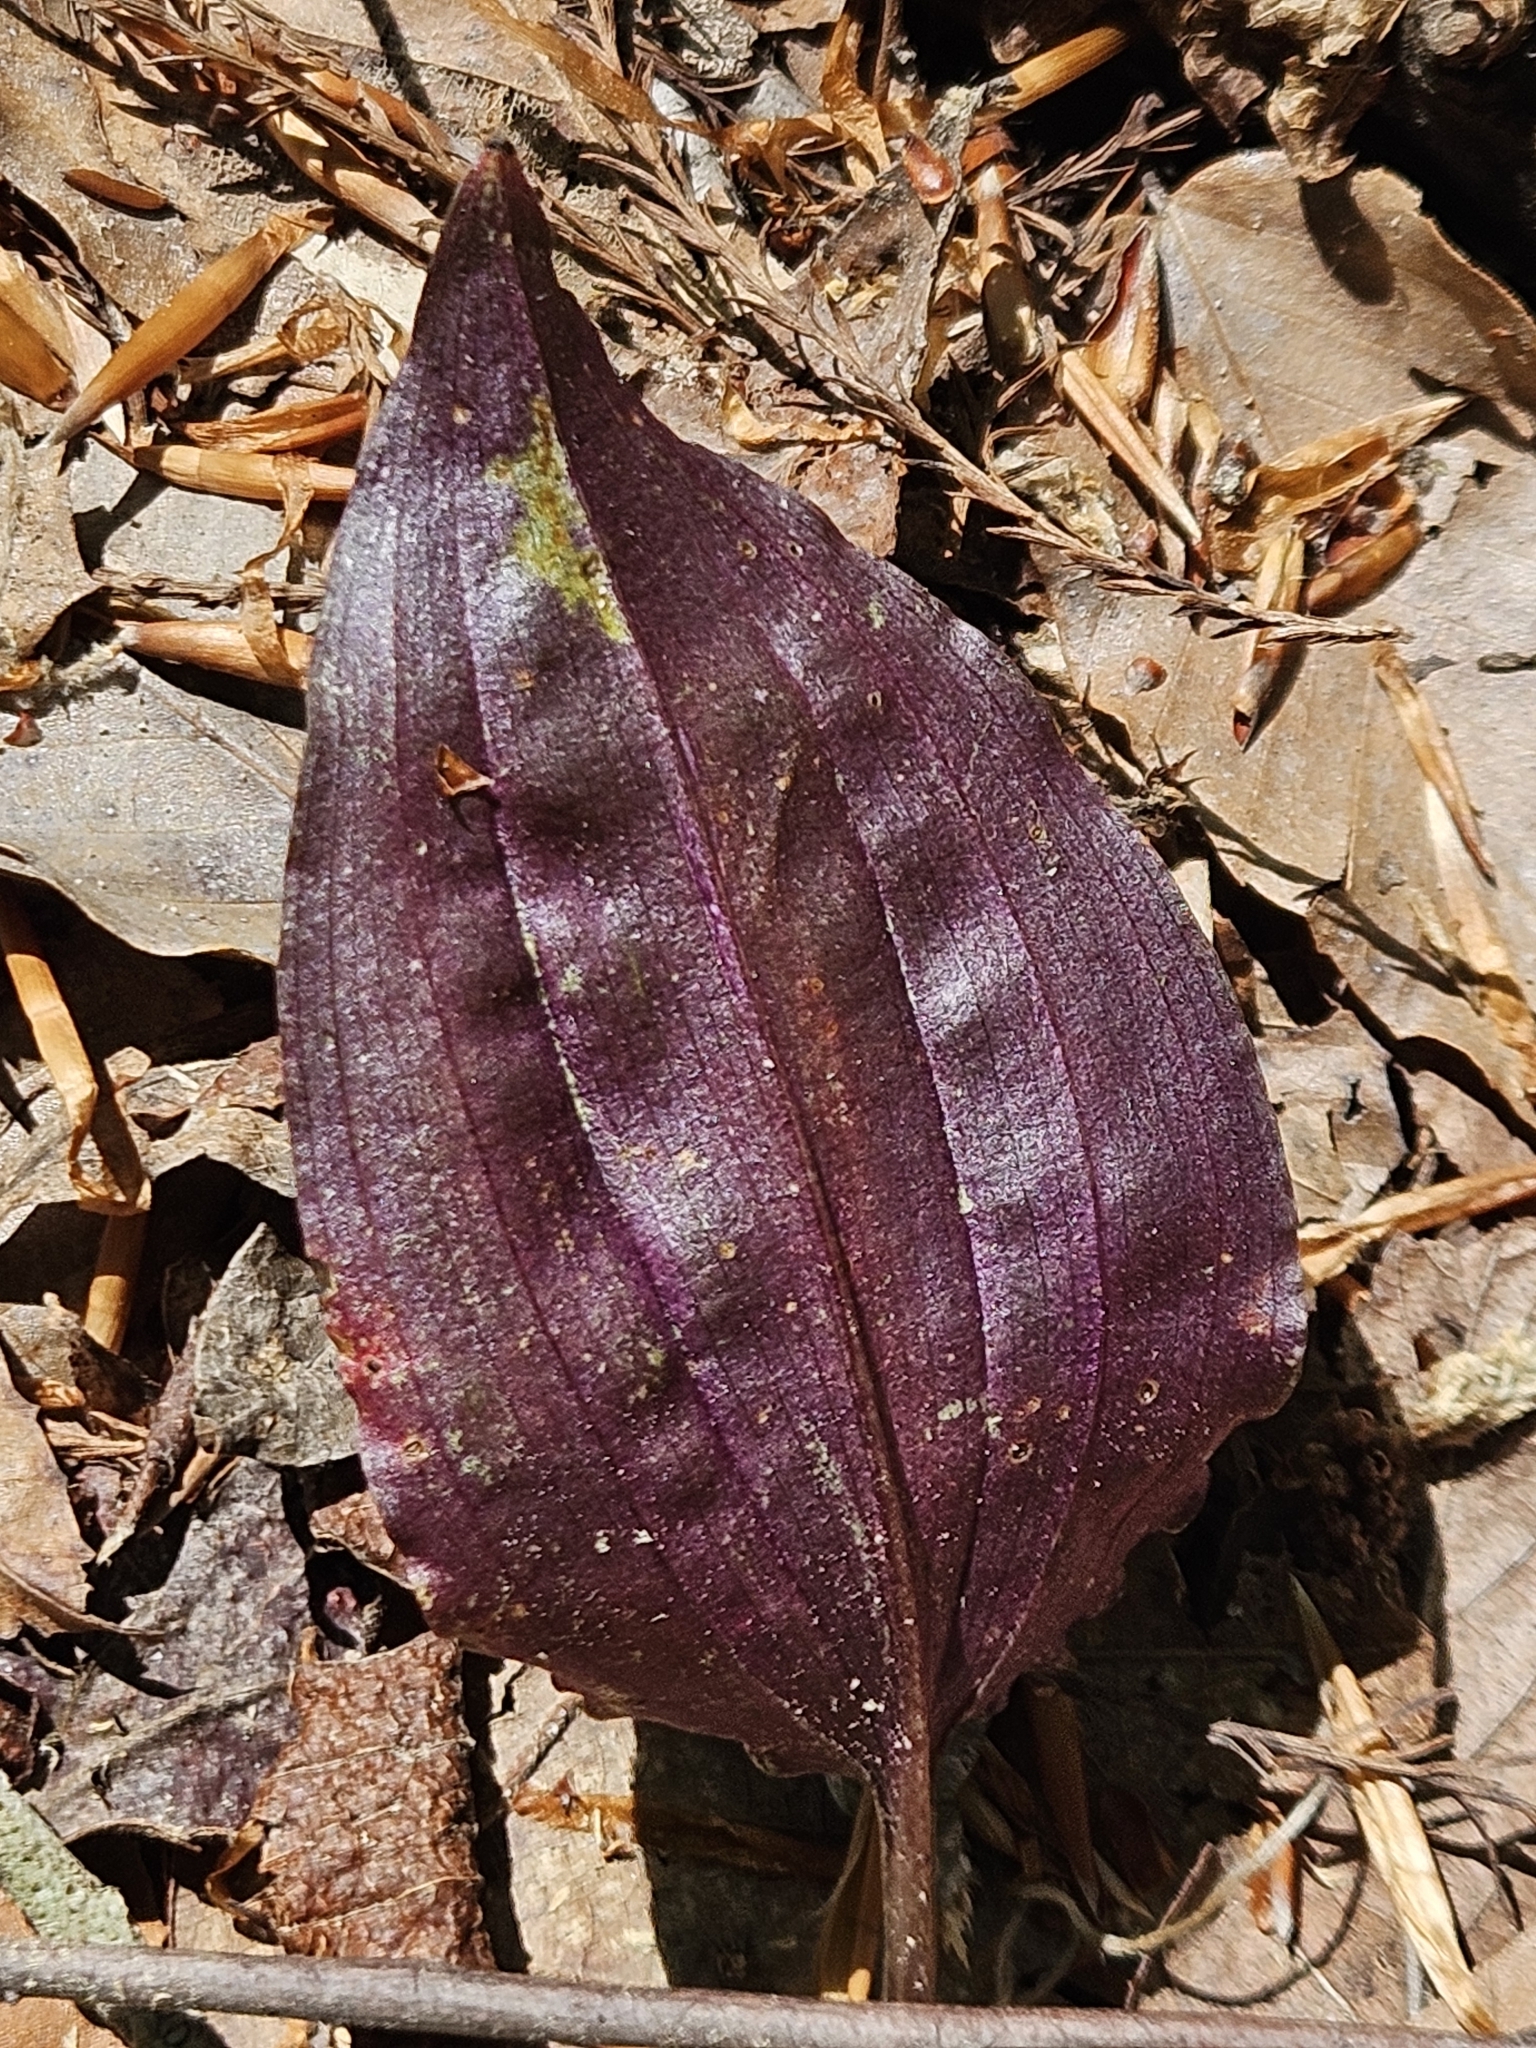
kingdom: Plantae
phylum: Tracheophyta
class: Liliopsida
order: Asparagales
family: Orchidaceae
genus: Tipularia
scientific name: Tipularia discolor
